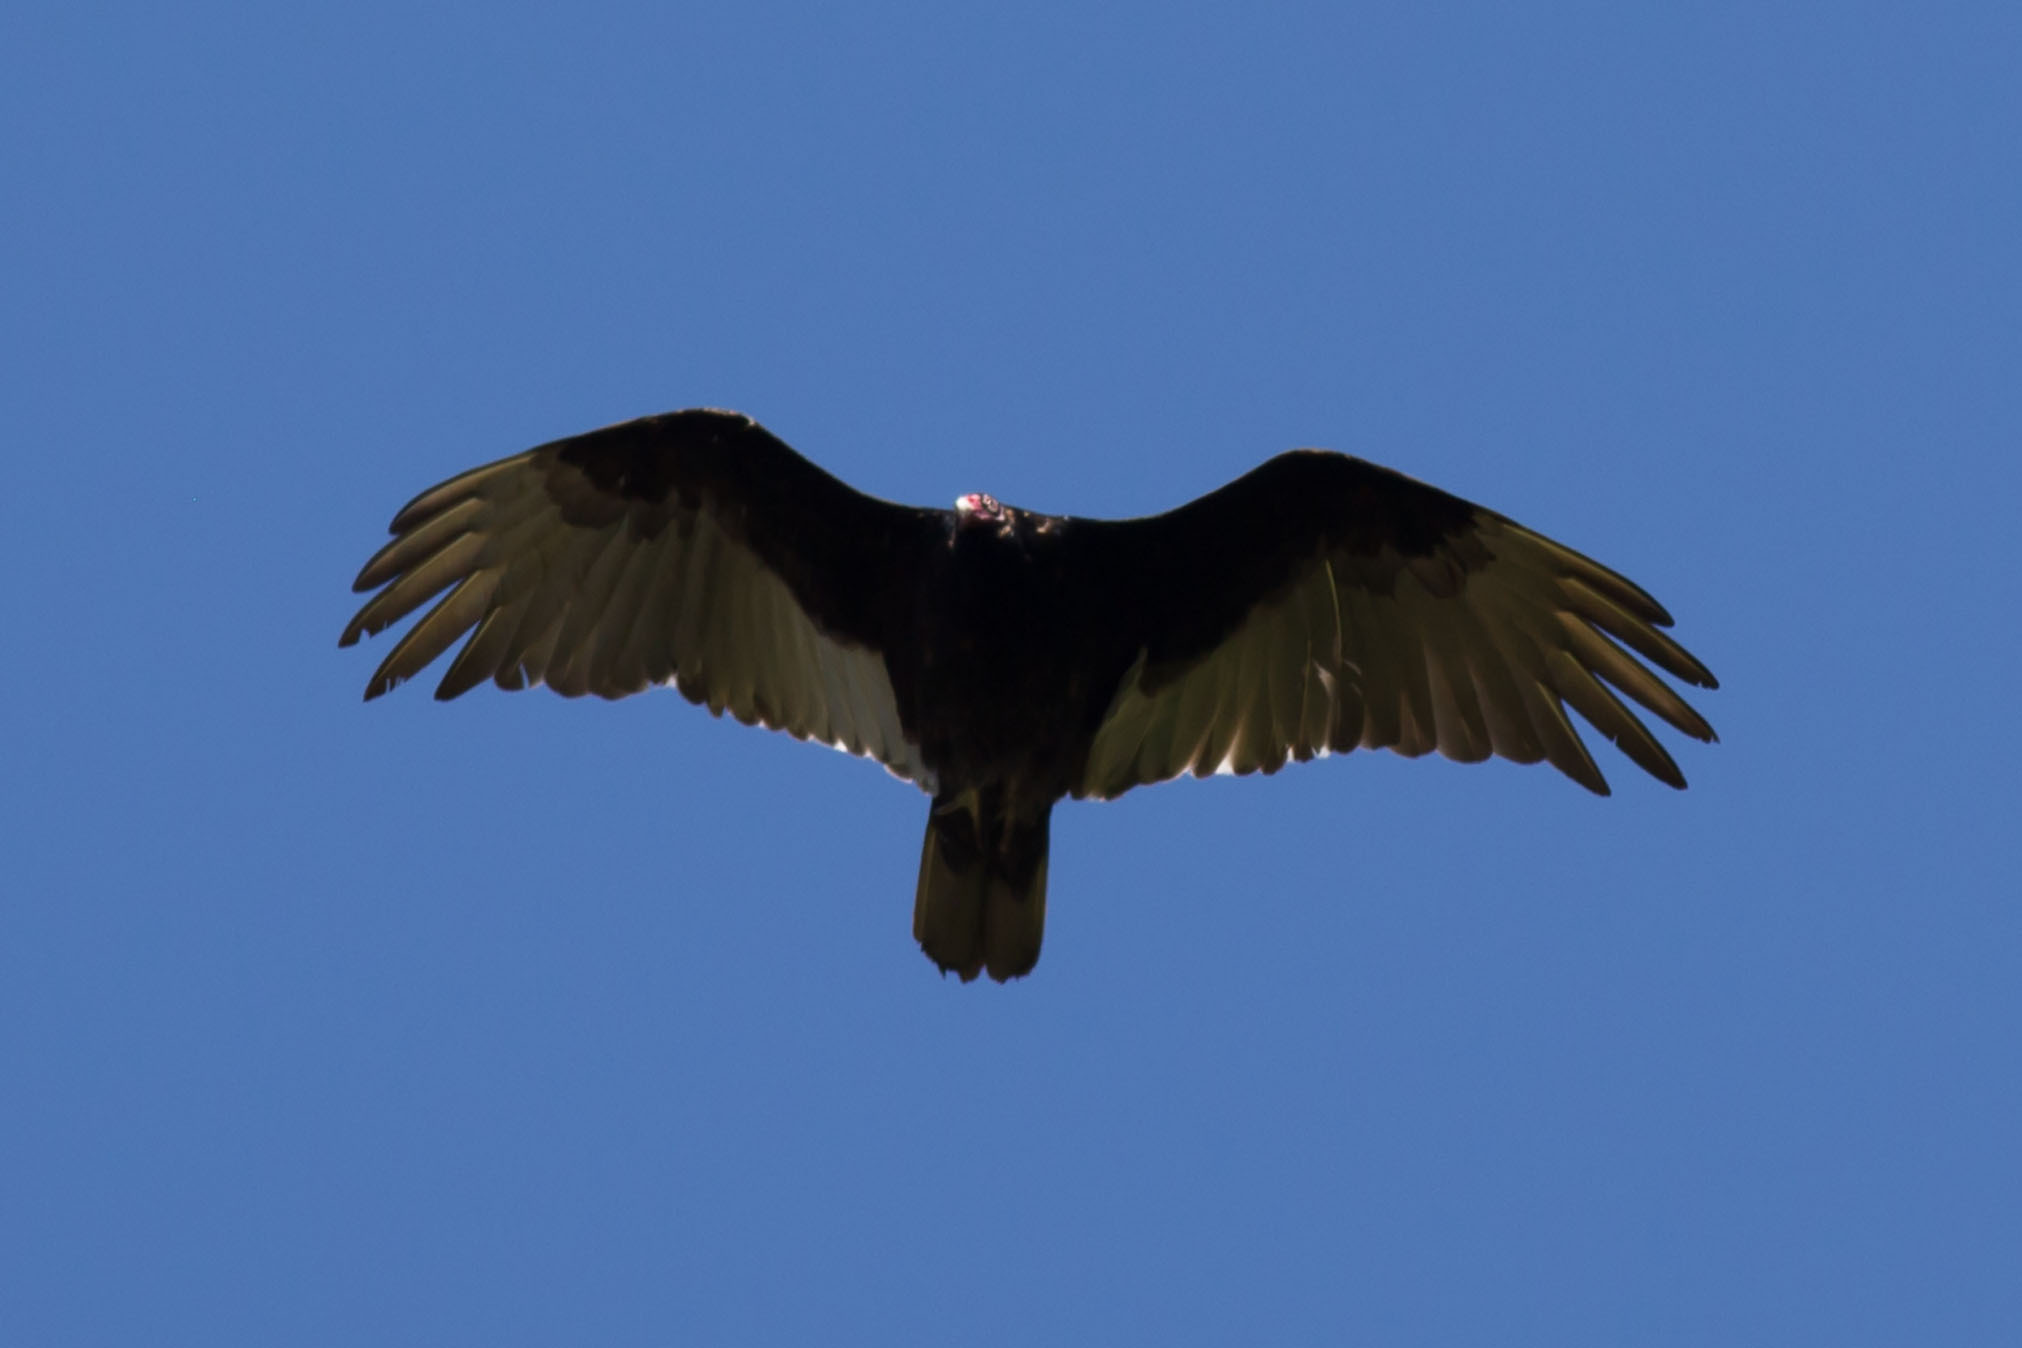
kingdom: Animalia
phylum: Chordata
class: Aves
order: Accipitriformes
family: Cathartidae
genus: Cathartes
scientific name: Cathartes aura
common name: Turkey vulture
